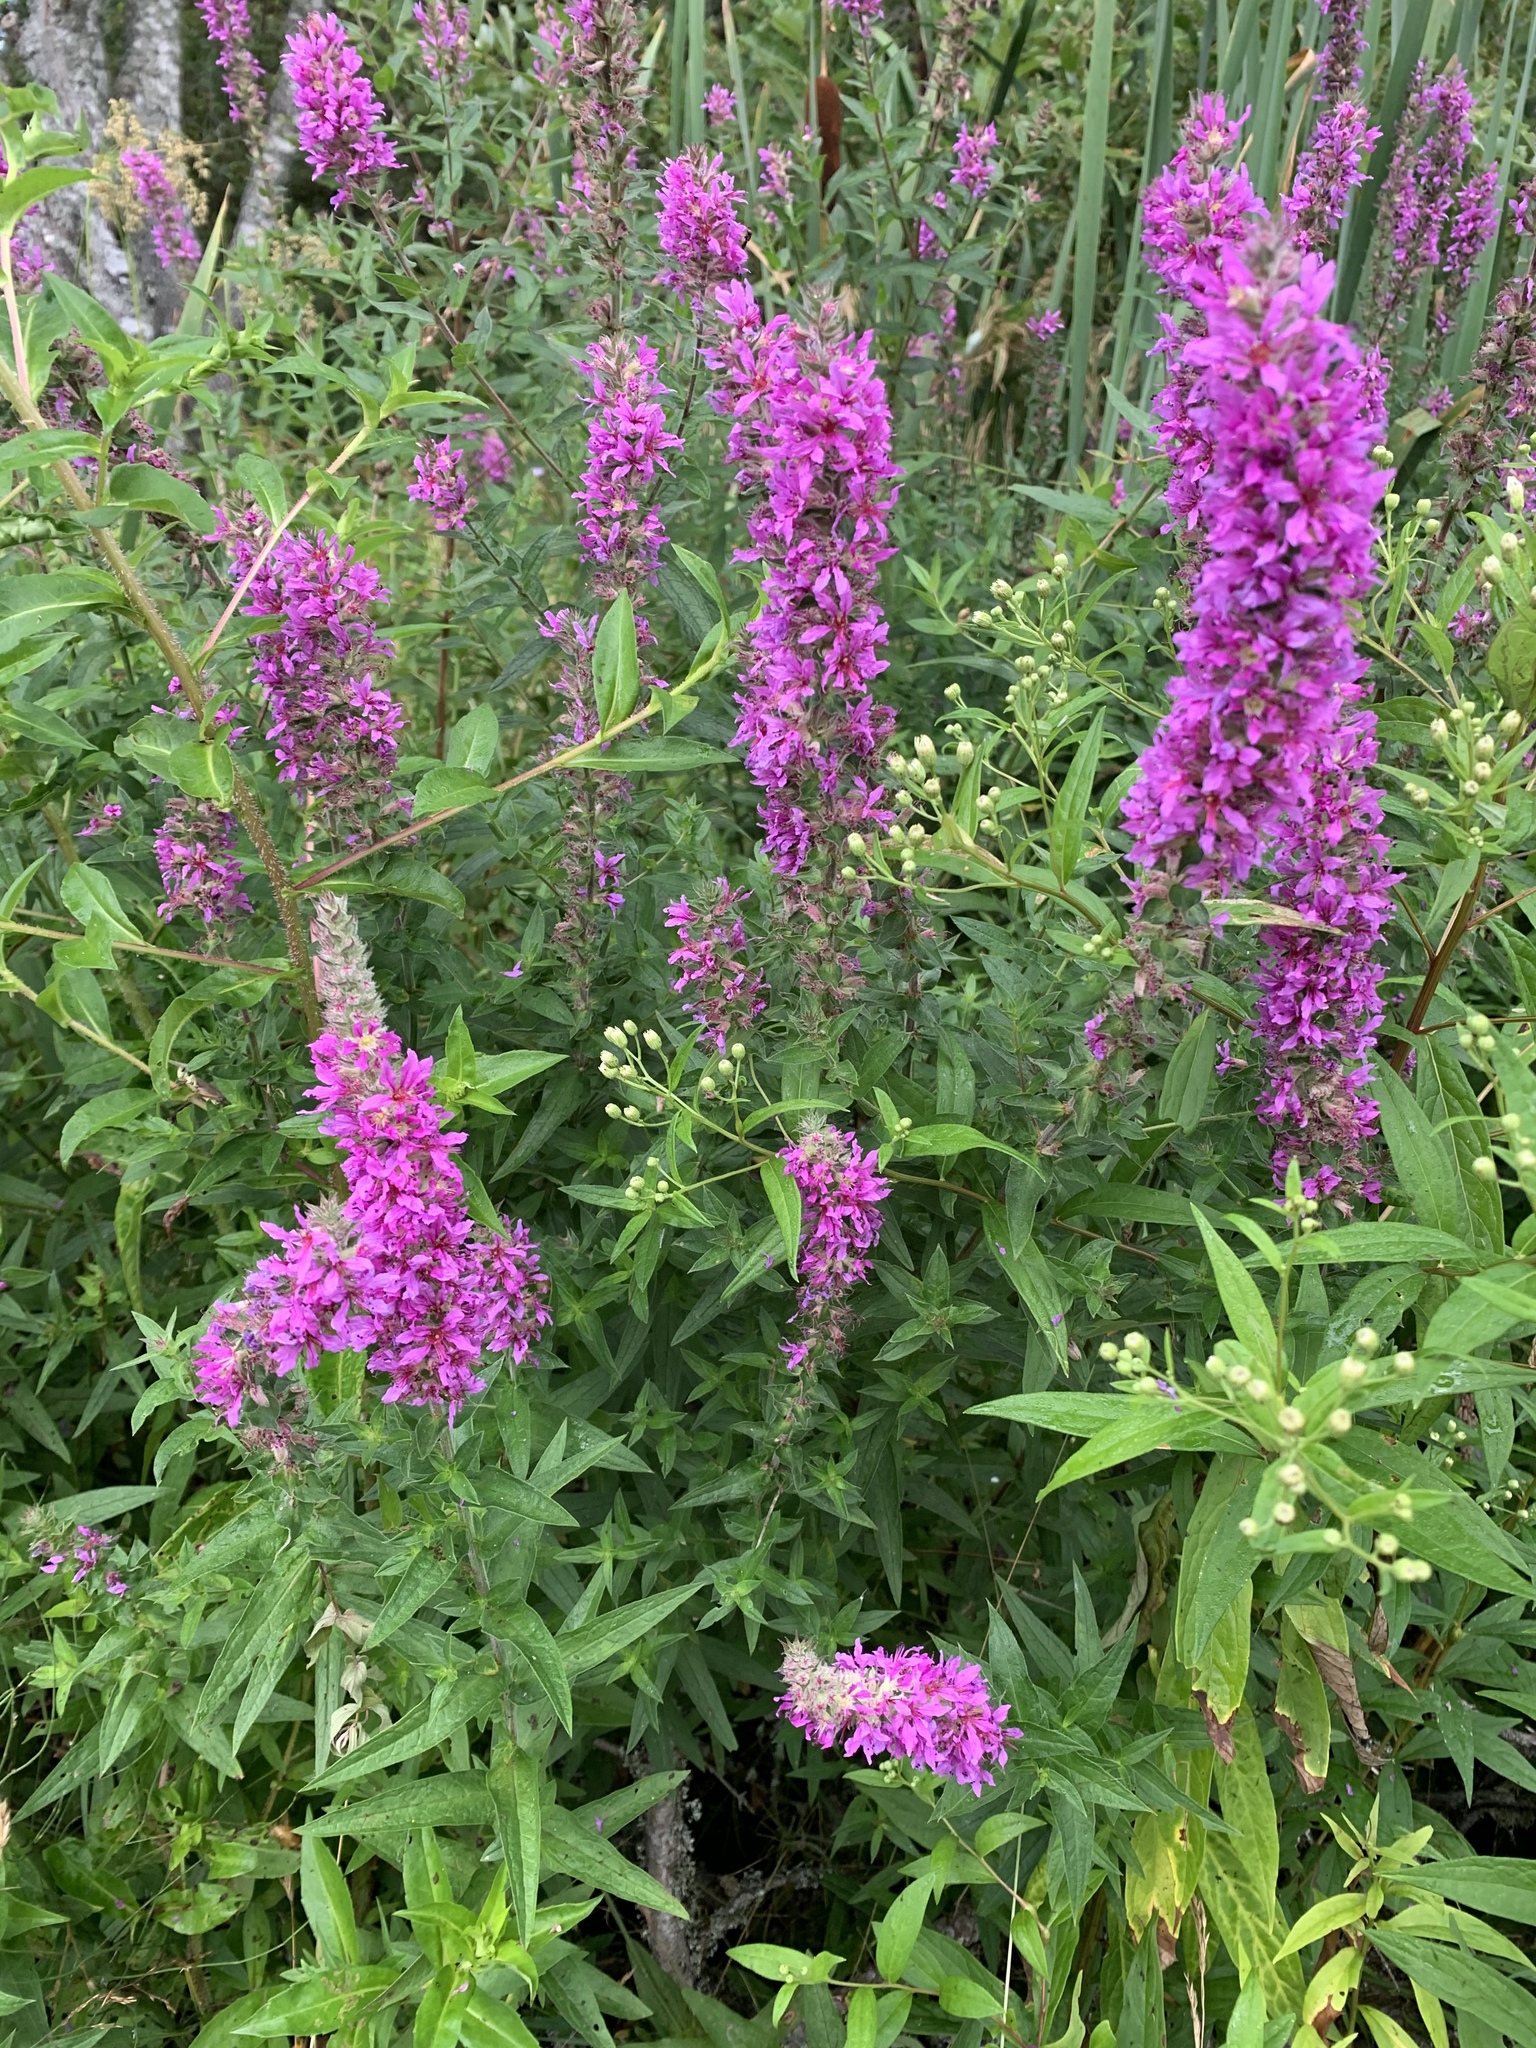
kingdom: Plantae
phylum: Tracheophyta
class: Magnoliopsida
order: Myrtales
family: Lythraceae
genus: Lythrum
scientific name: Lythrum salicaria
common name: Purple loosestrife
